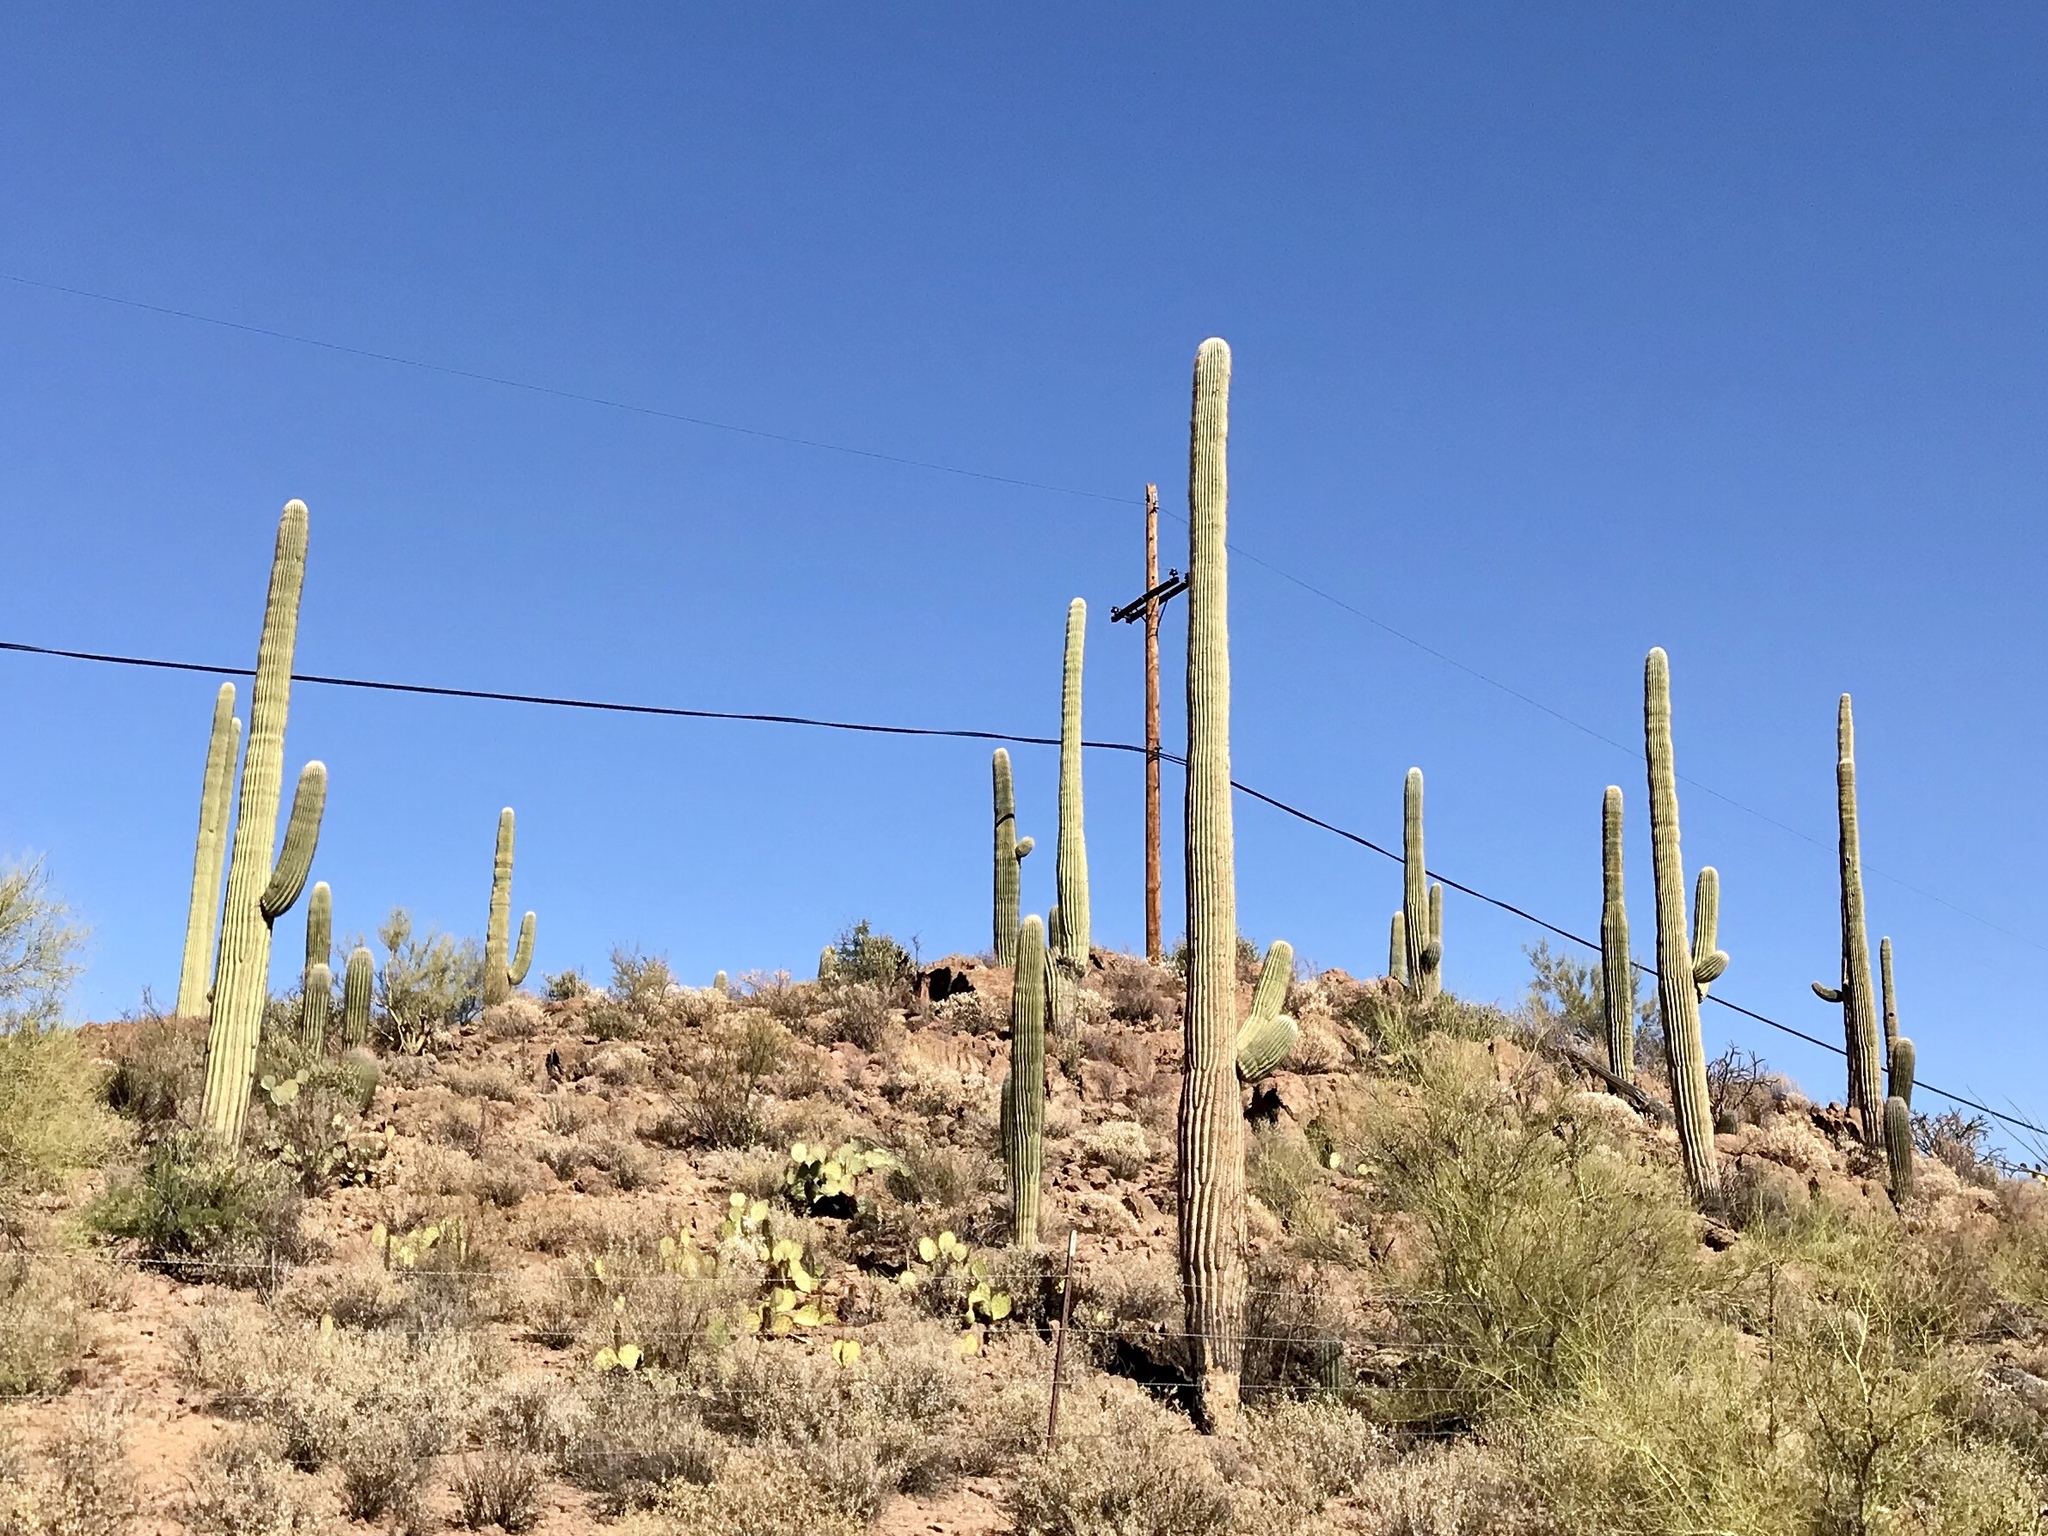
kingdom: Plantae
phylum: Tracheophyta
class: Magnoliopsida
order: Caryophyllales
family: Cactaceae
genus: Carnegiea
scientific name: Carnegiea gigantea
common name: Saguaro
